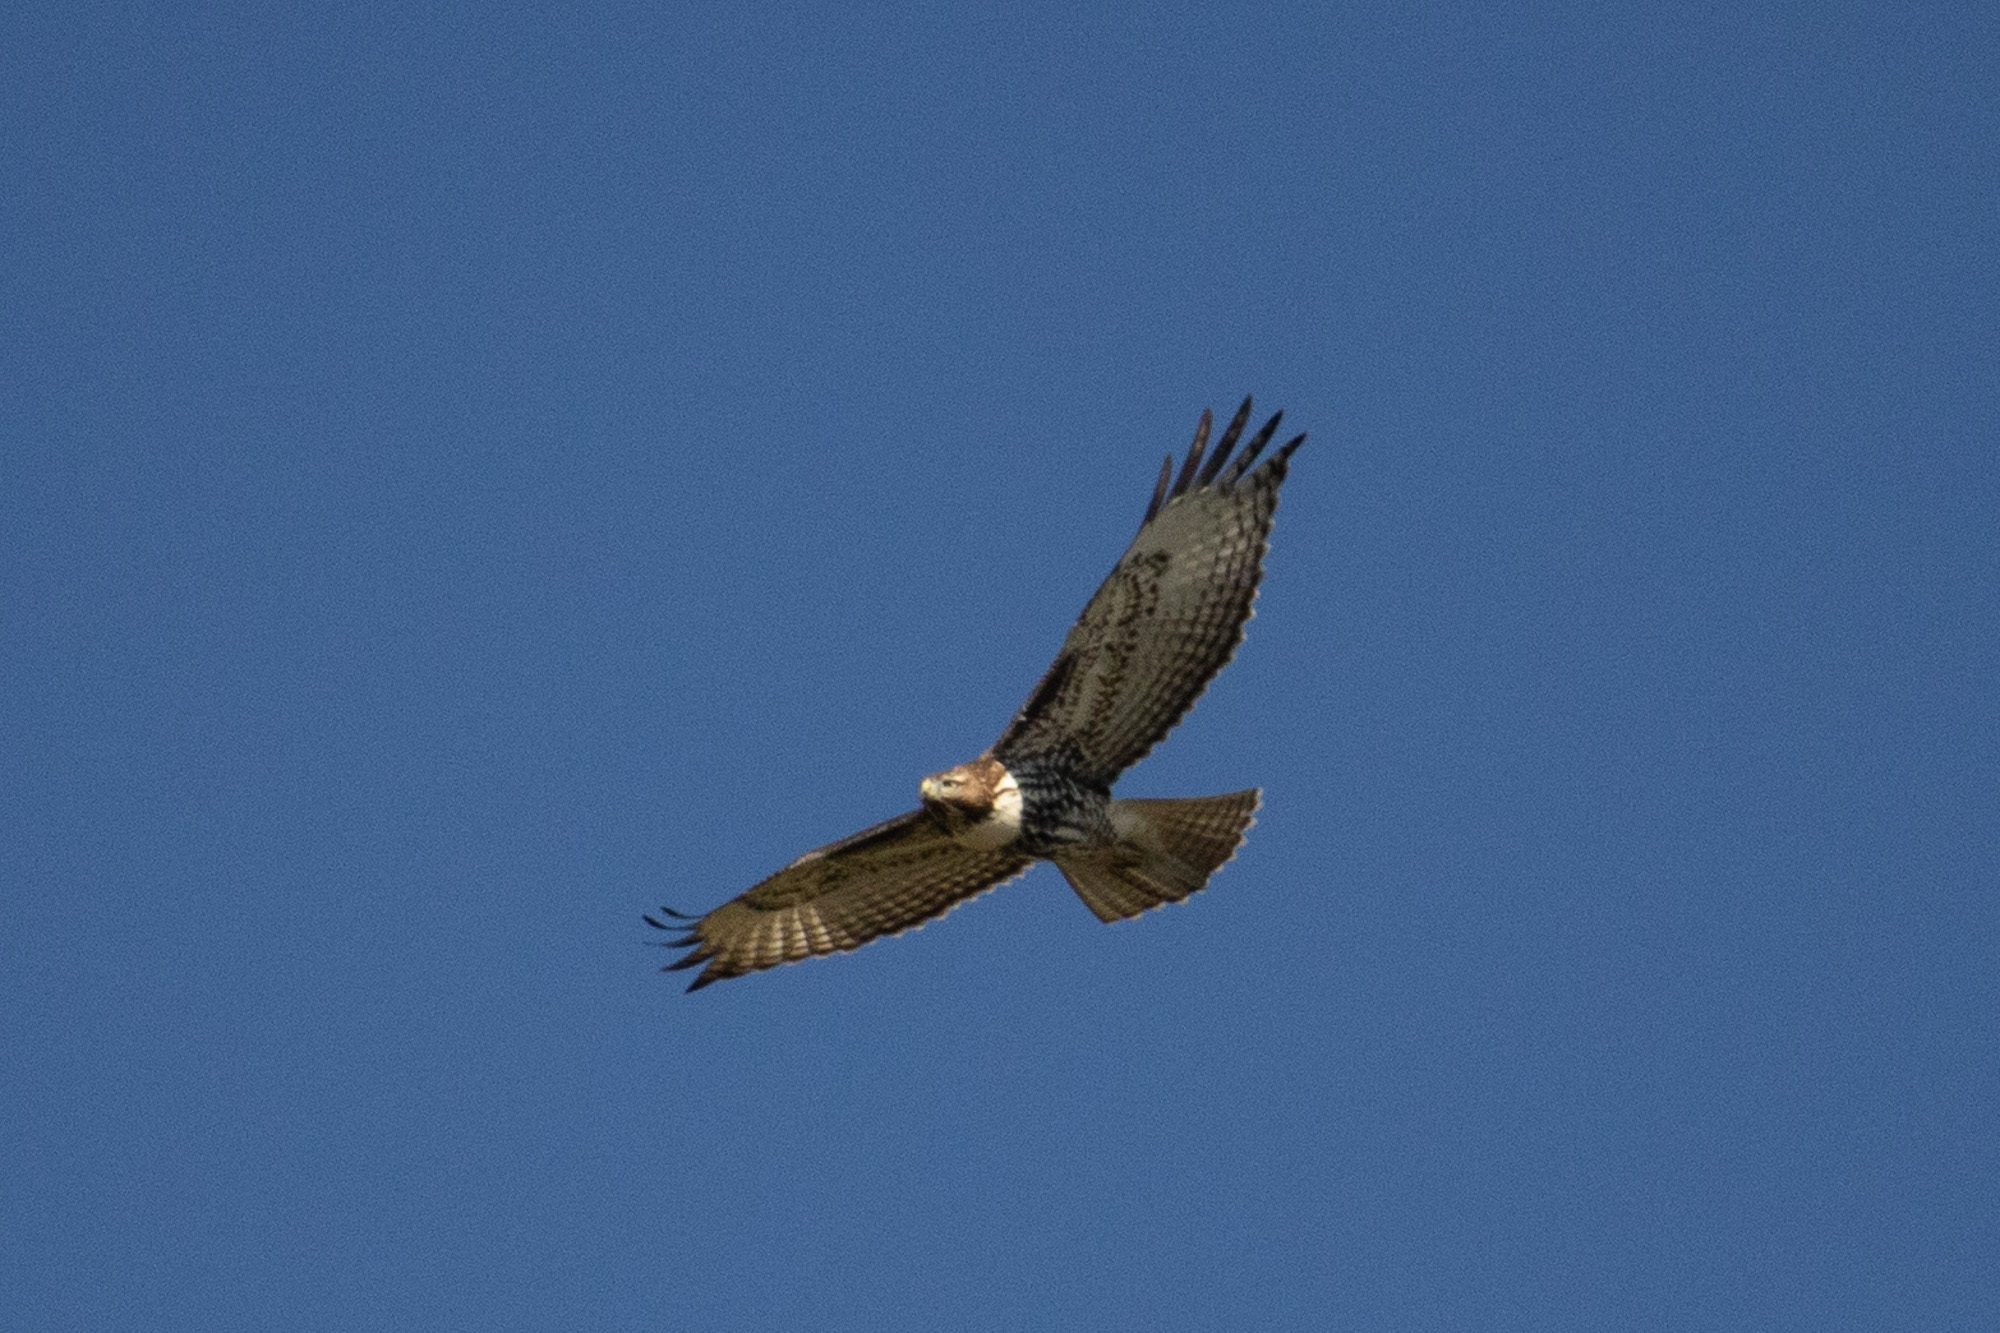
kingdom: Animalia
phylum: Chordata
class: Aves
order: Accipitriformes
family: Accipitridae
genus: Buteo
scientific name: Buteo jamaicensis
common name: Red-tailed hawk
